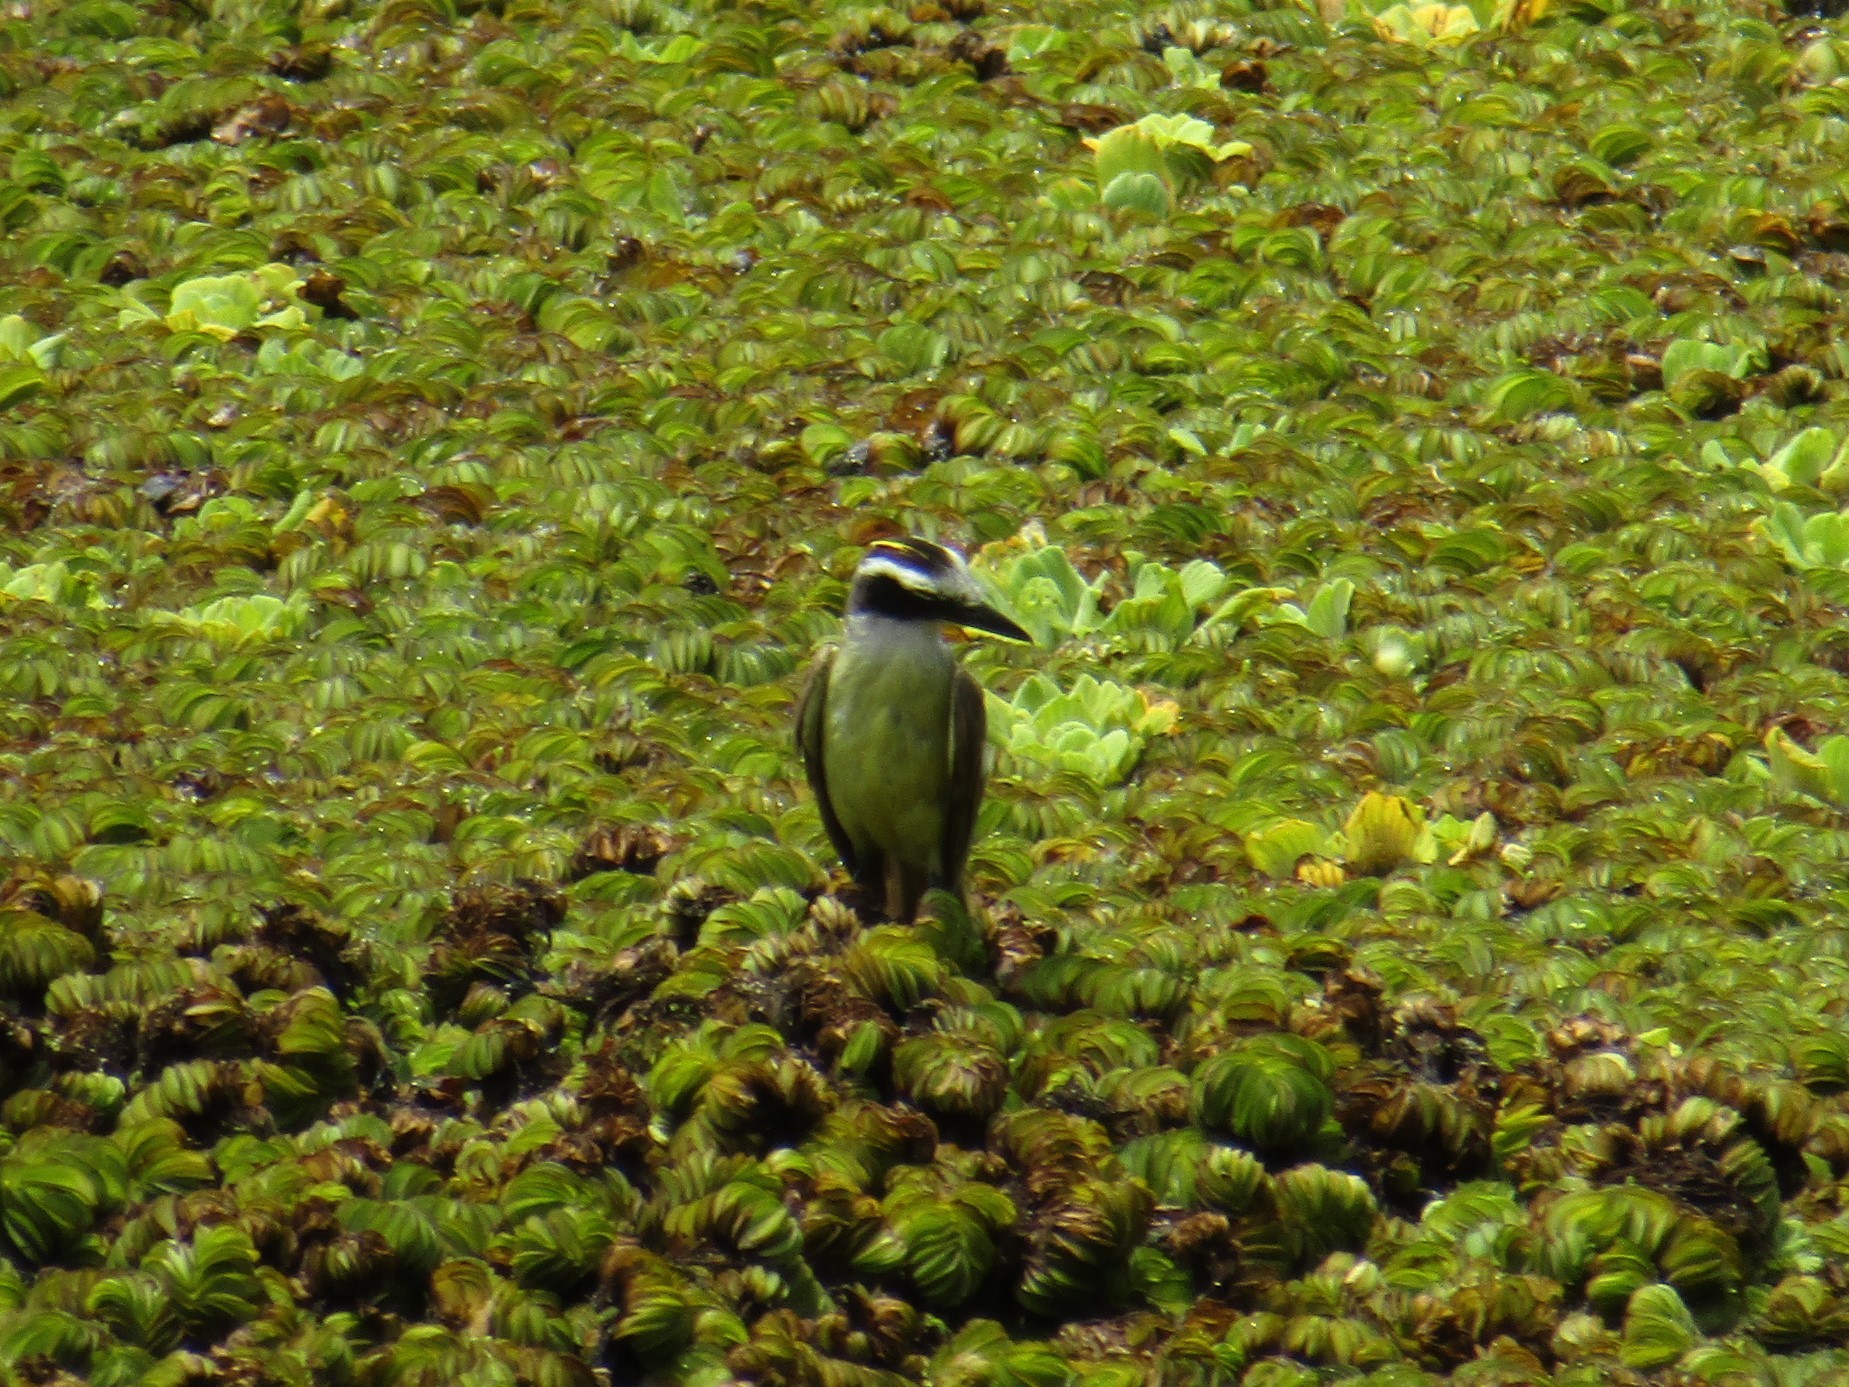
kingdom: Animalia
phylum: Chordata
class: Aves
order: Passeriformes
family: Tyrannidae
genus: Pitangus
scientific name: Pitangus sulphuratus
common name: Great kiskadee
